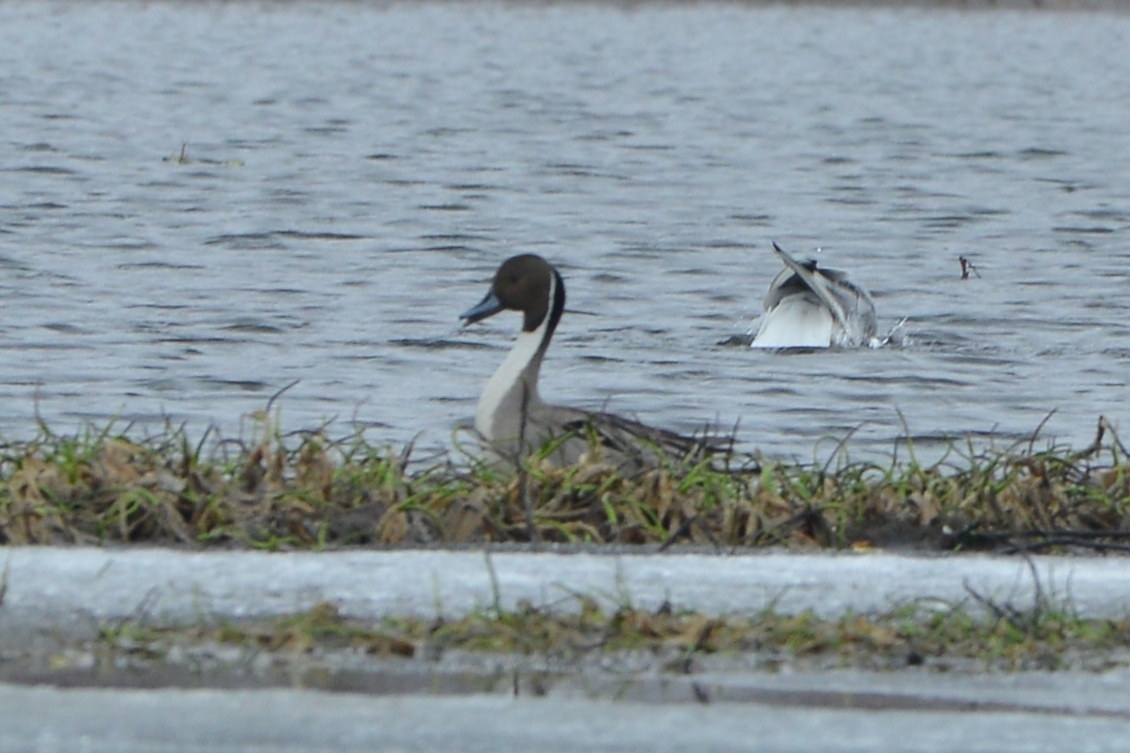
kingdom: Animalia
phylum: Chordata
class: Aves
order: Anseriformes
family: Anatidae
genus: Anas
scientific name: Anas acuta
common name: Northern pintail
